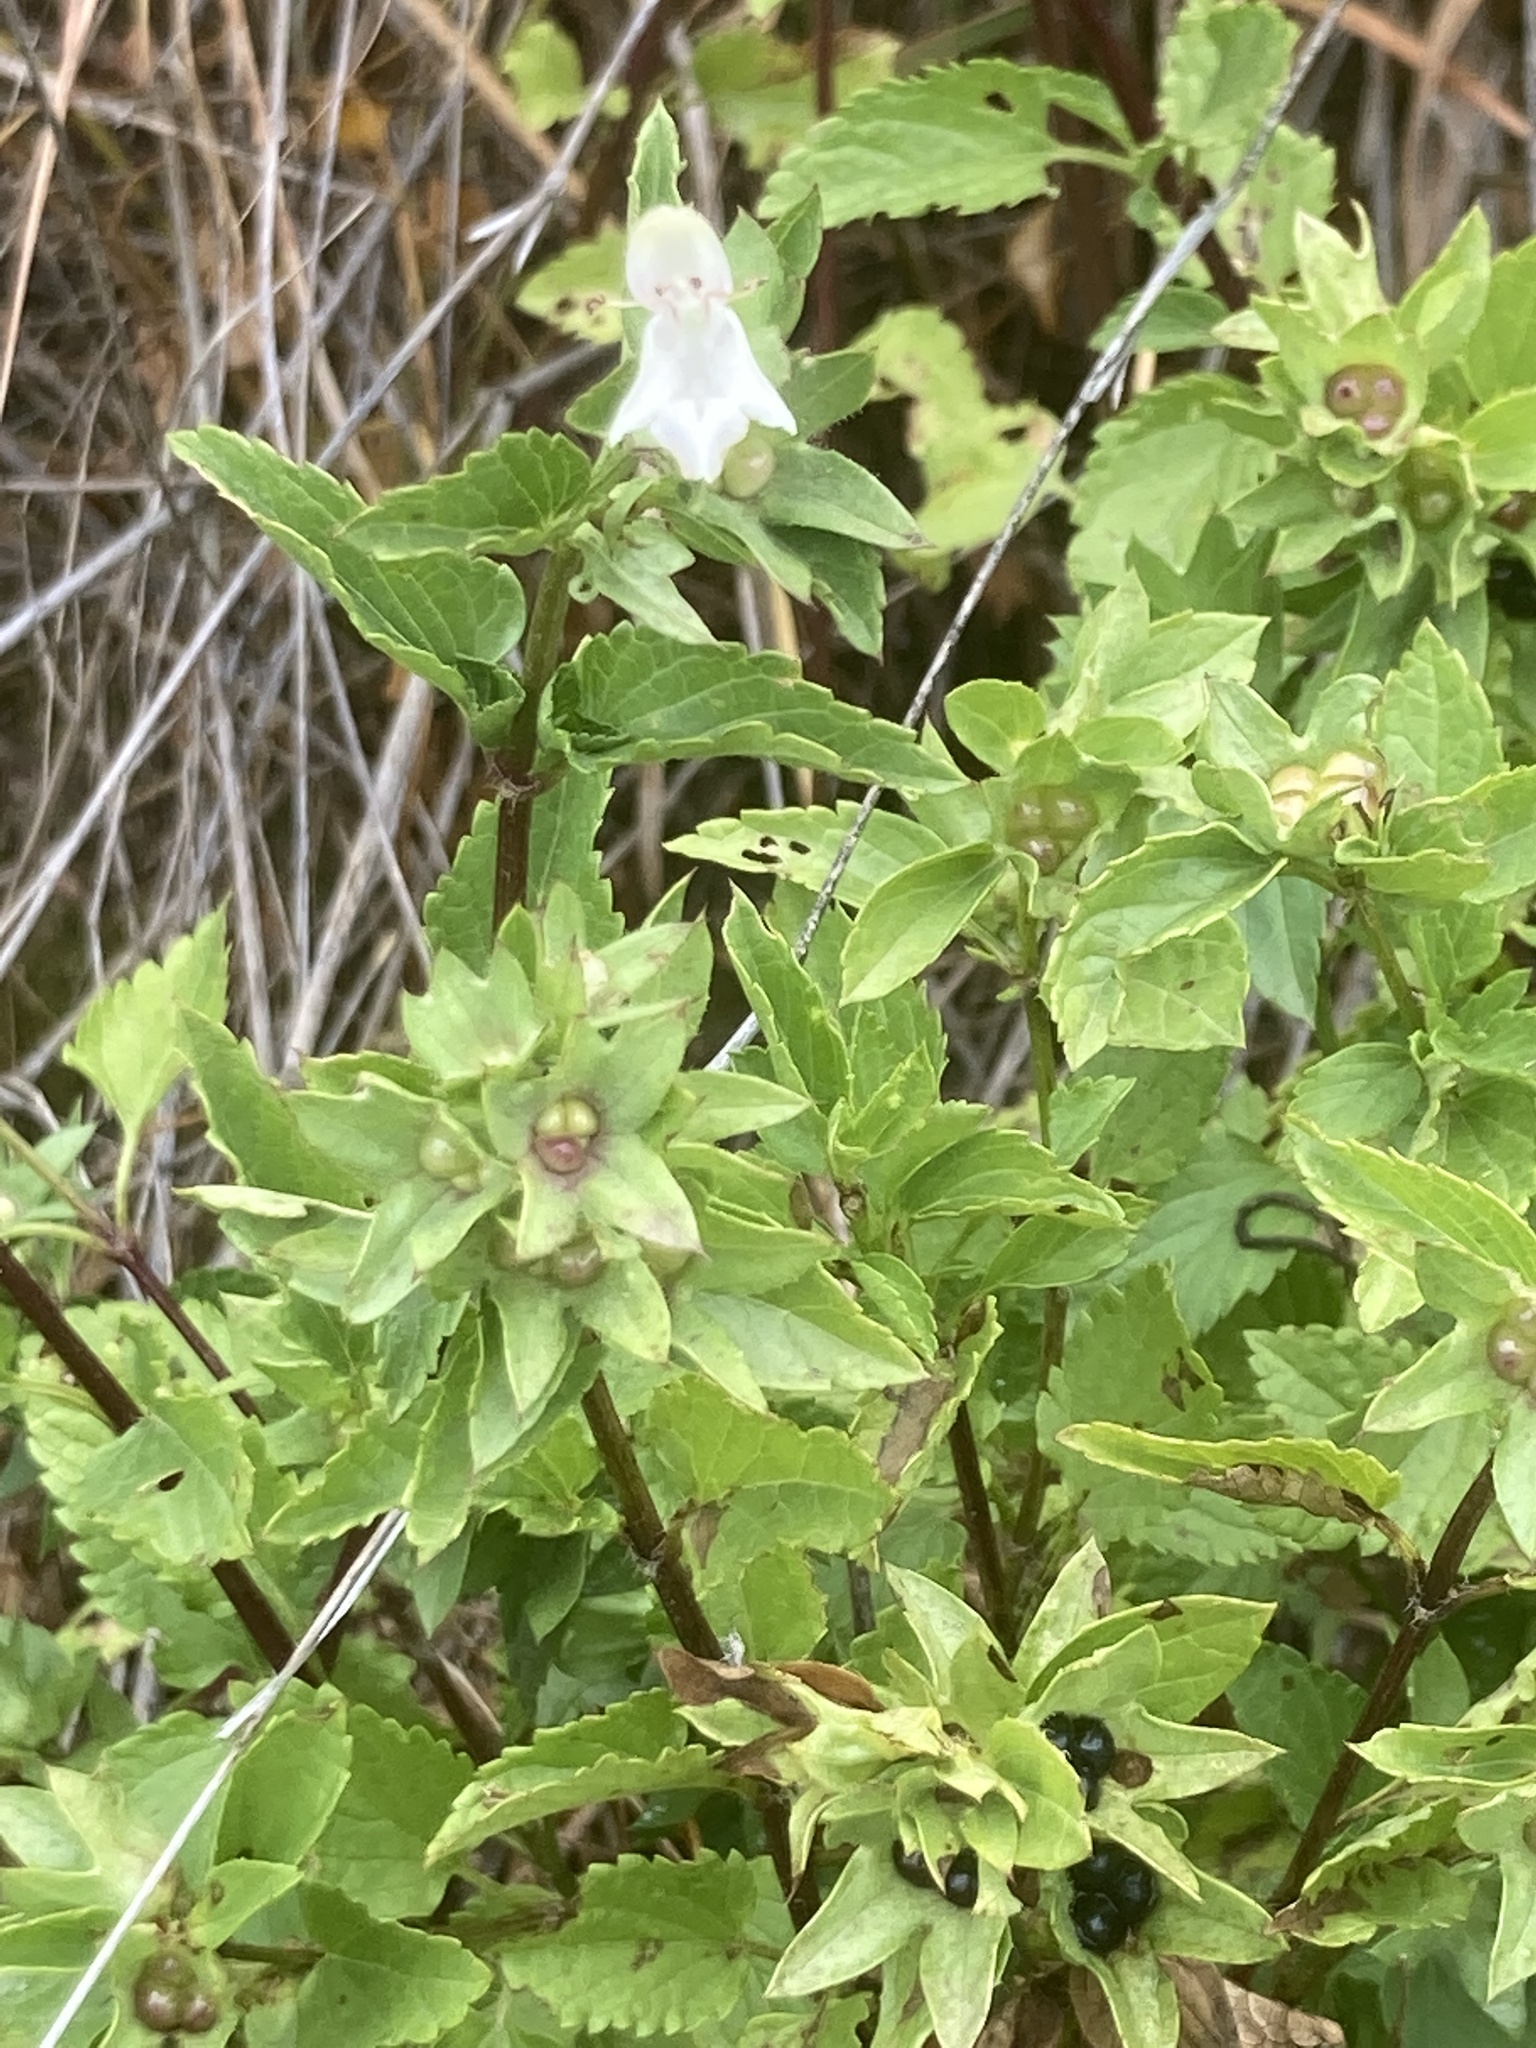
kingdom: Plantae
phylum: Tracheophyta
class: Magnoliopsida
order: Lamiales
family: Lamiaceae
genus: Prasium
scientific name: Prasium majus
